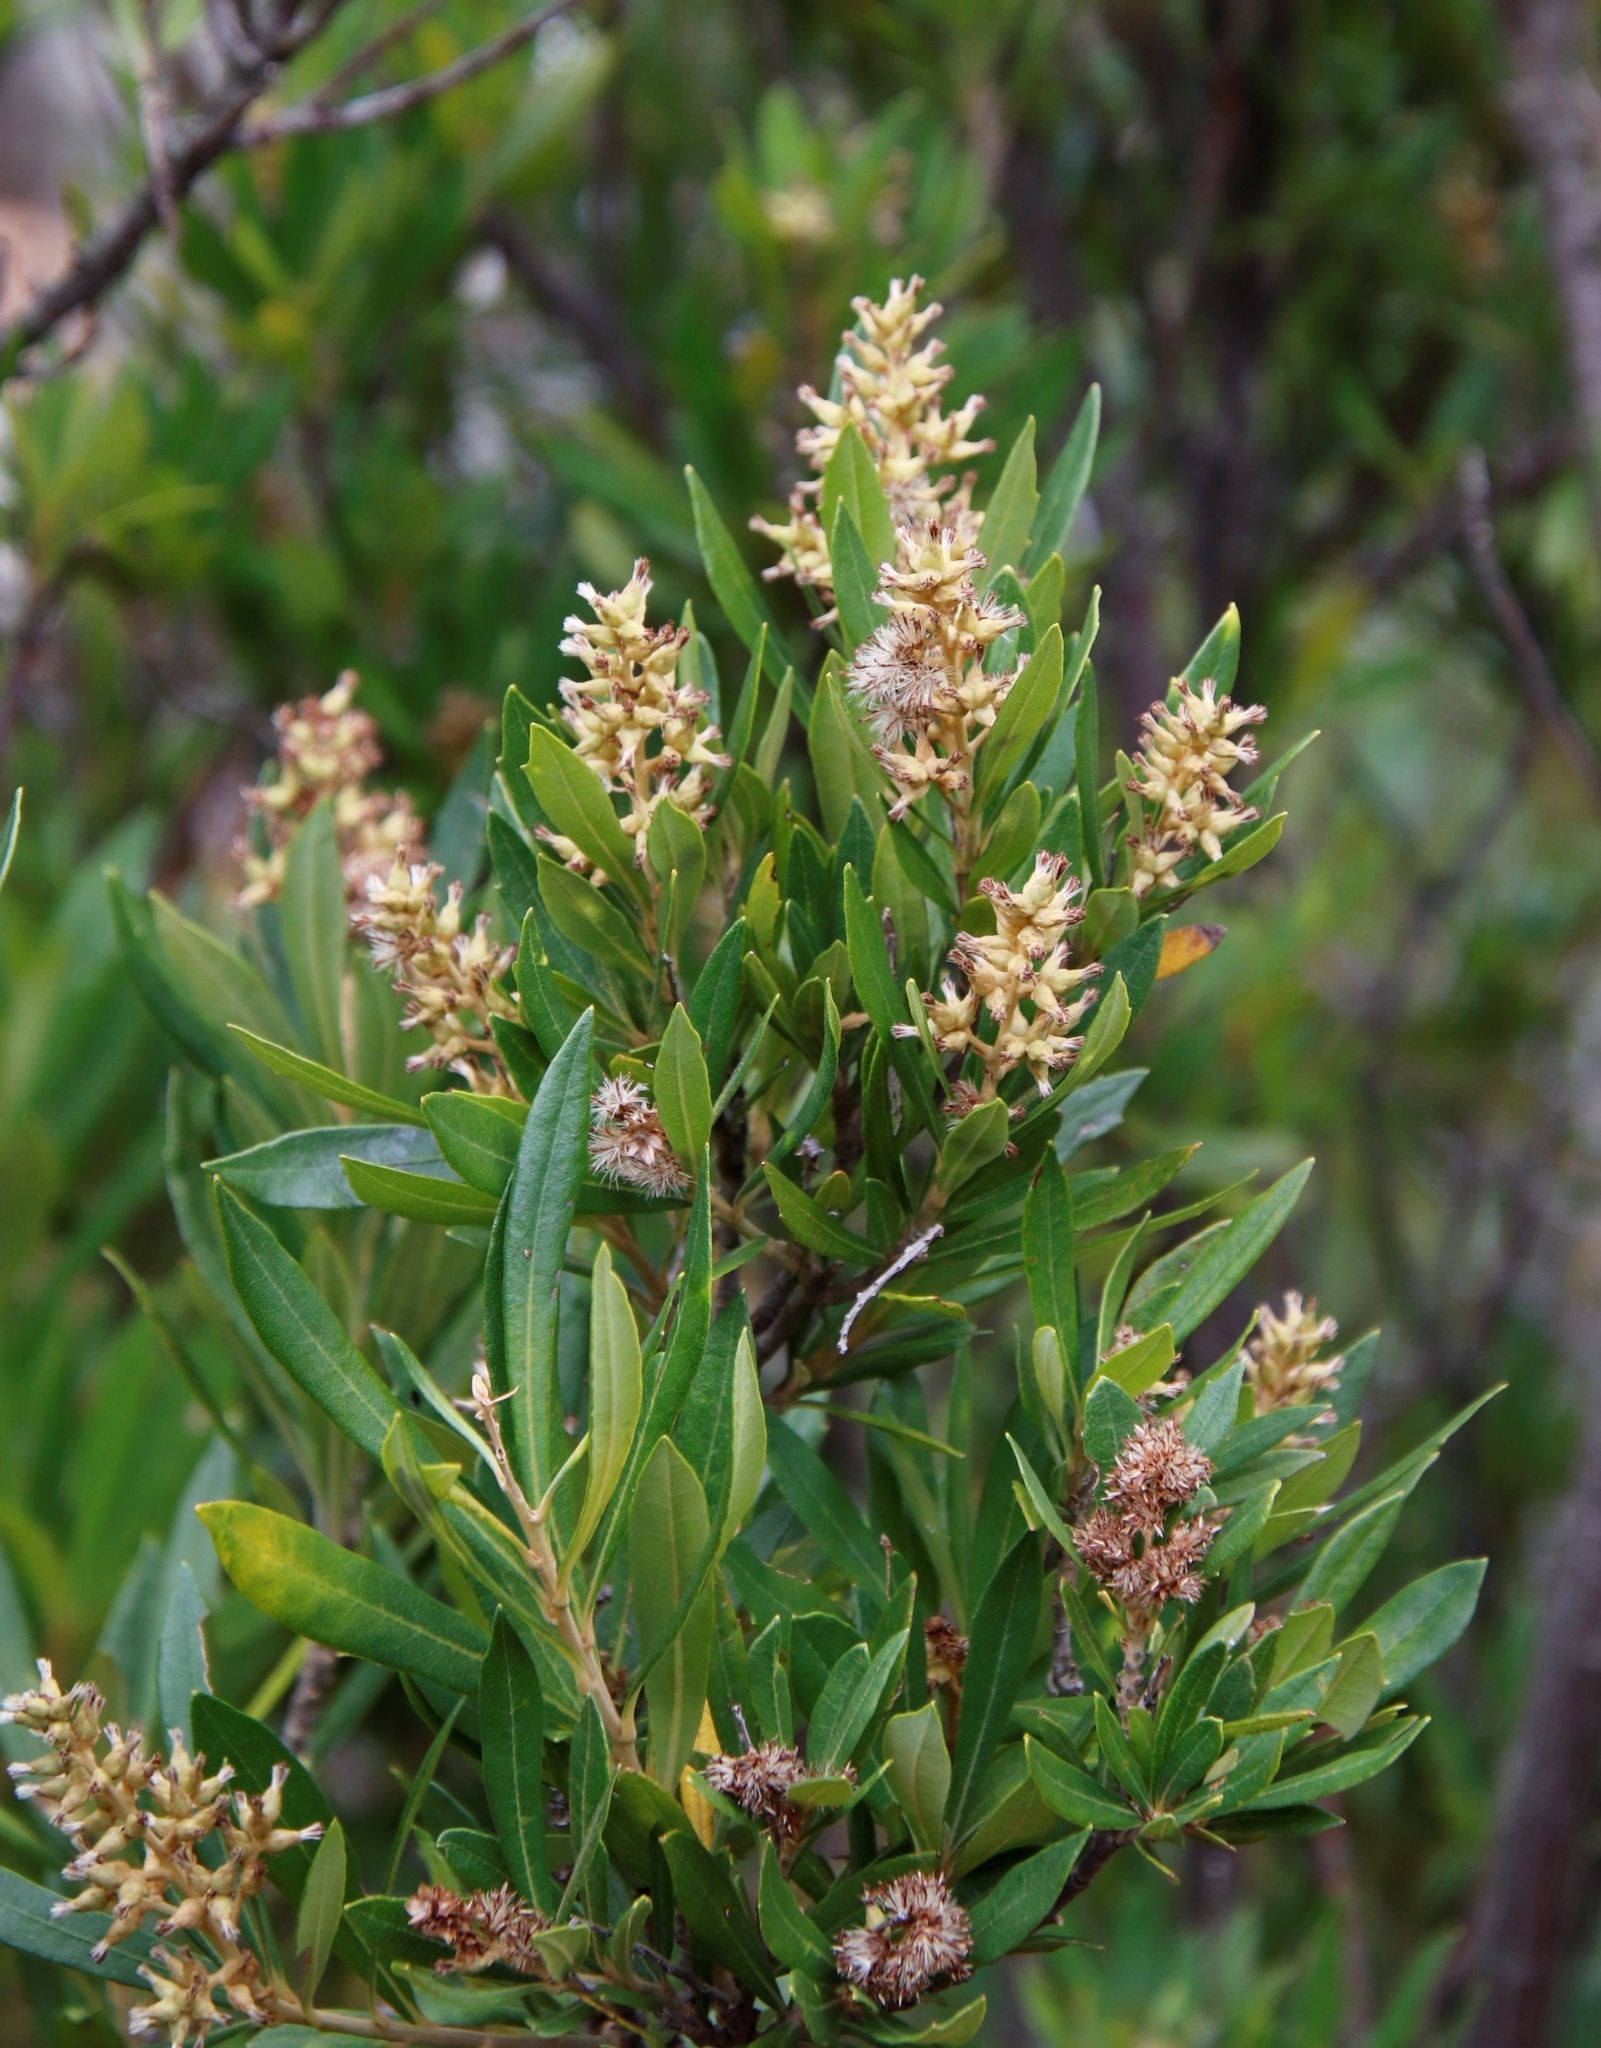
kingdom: Plantae
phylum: Tracheophyta
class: Magnoliopsida
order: Asterales
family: Asteraceae
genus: Brachylaena
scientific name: Brachylaena neriifolia
